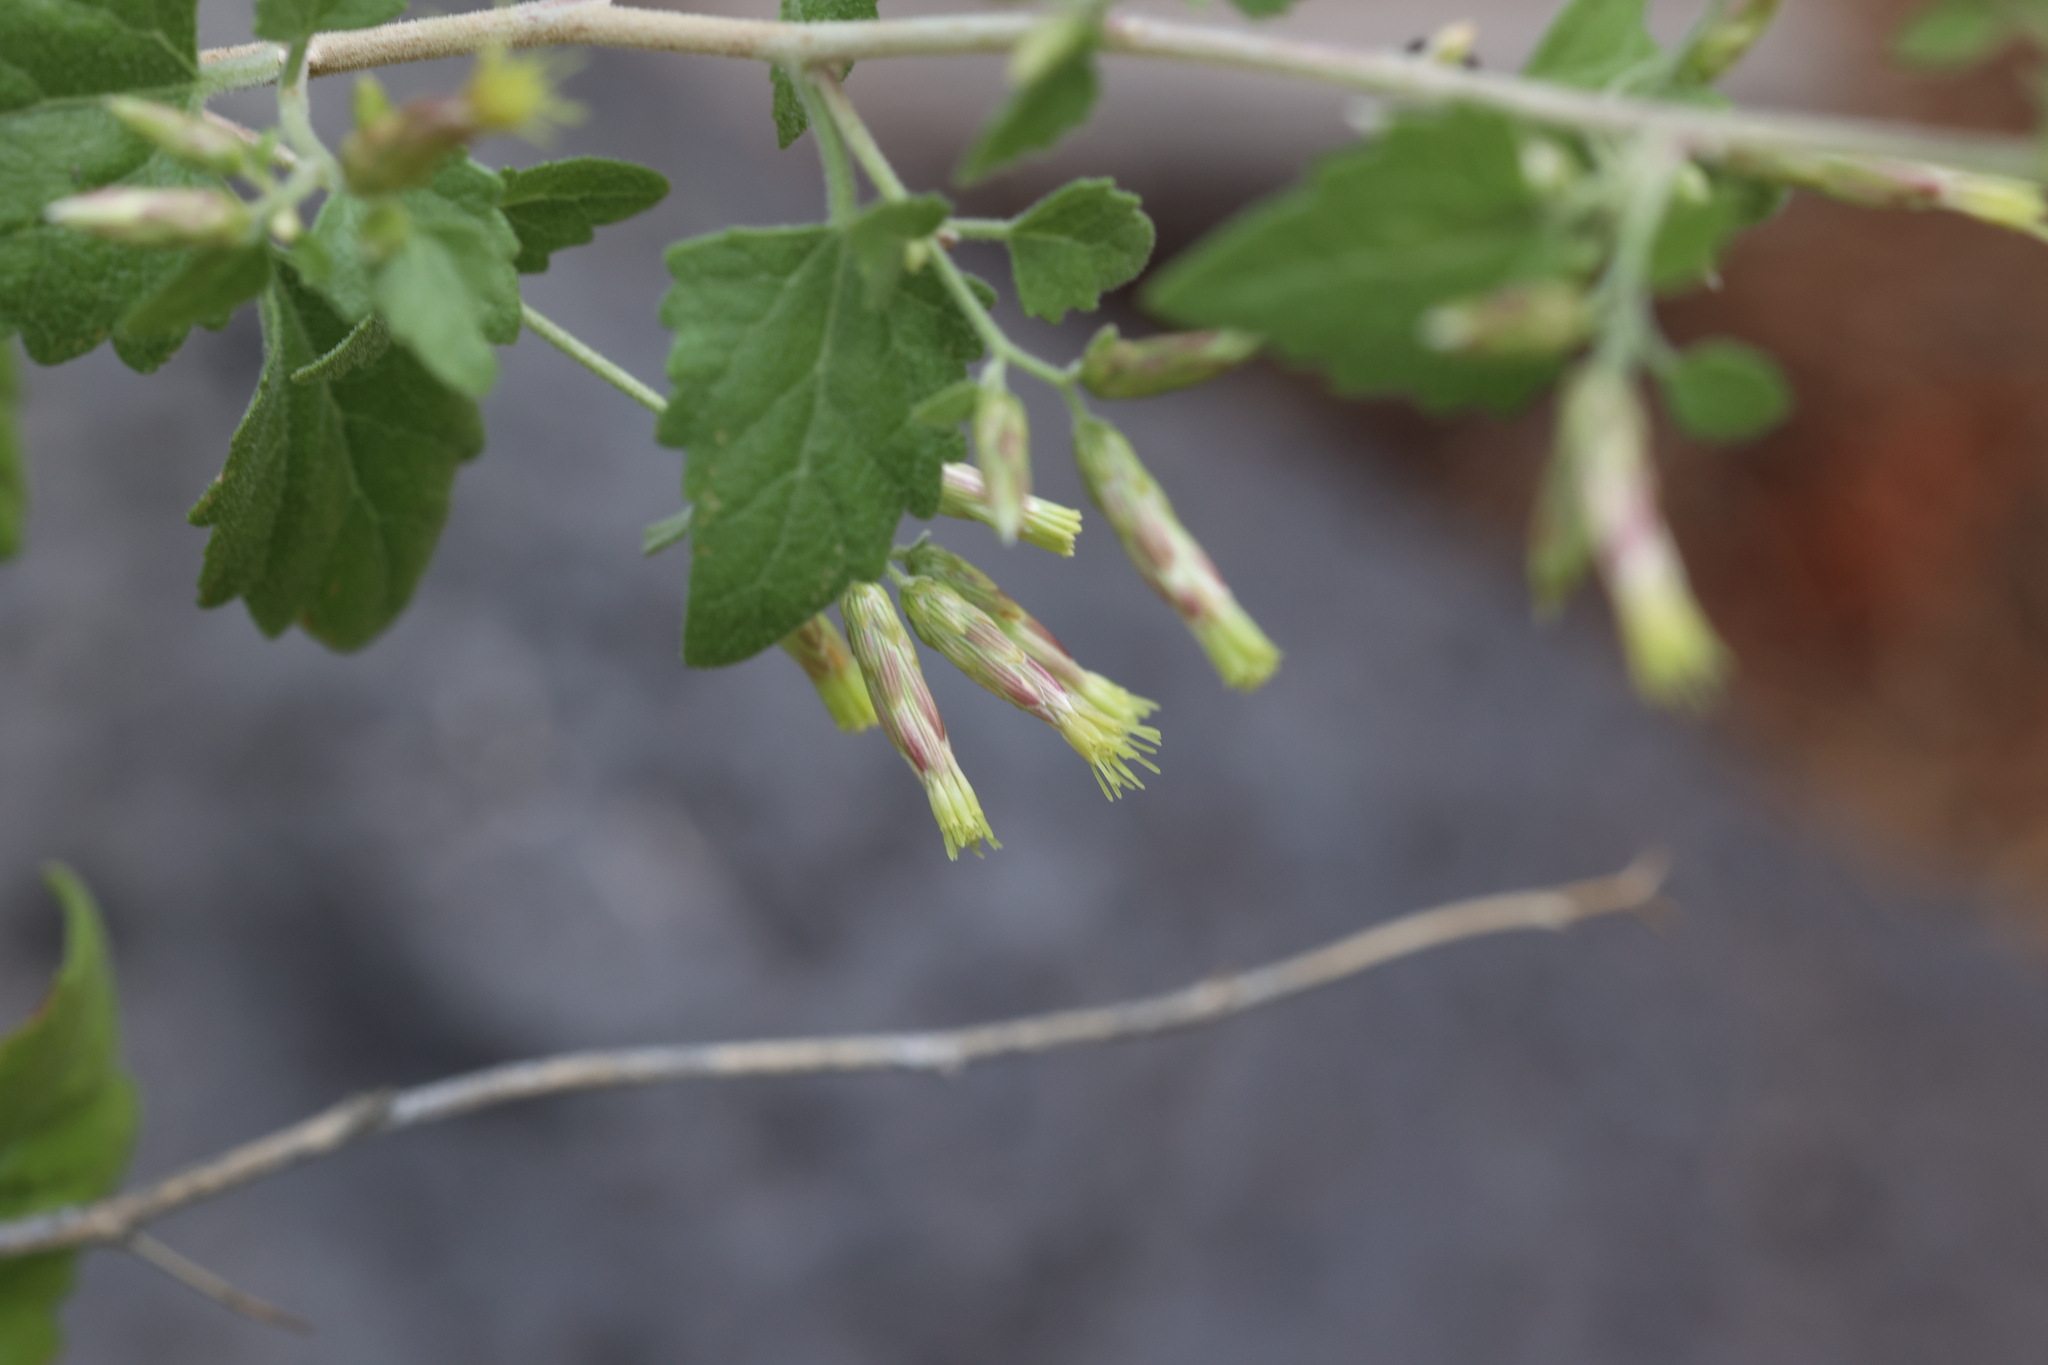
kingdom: Plantae
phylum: Tracheophyta
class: Magnoliopsida
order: Asterales
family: Asteraceae
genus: Brickellia
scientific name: Brickellia californica
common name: California brickellbush
